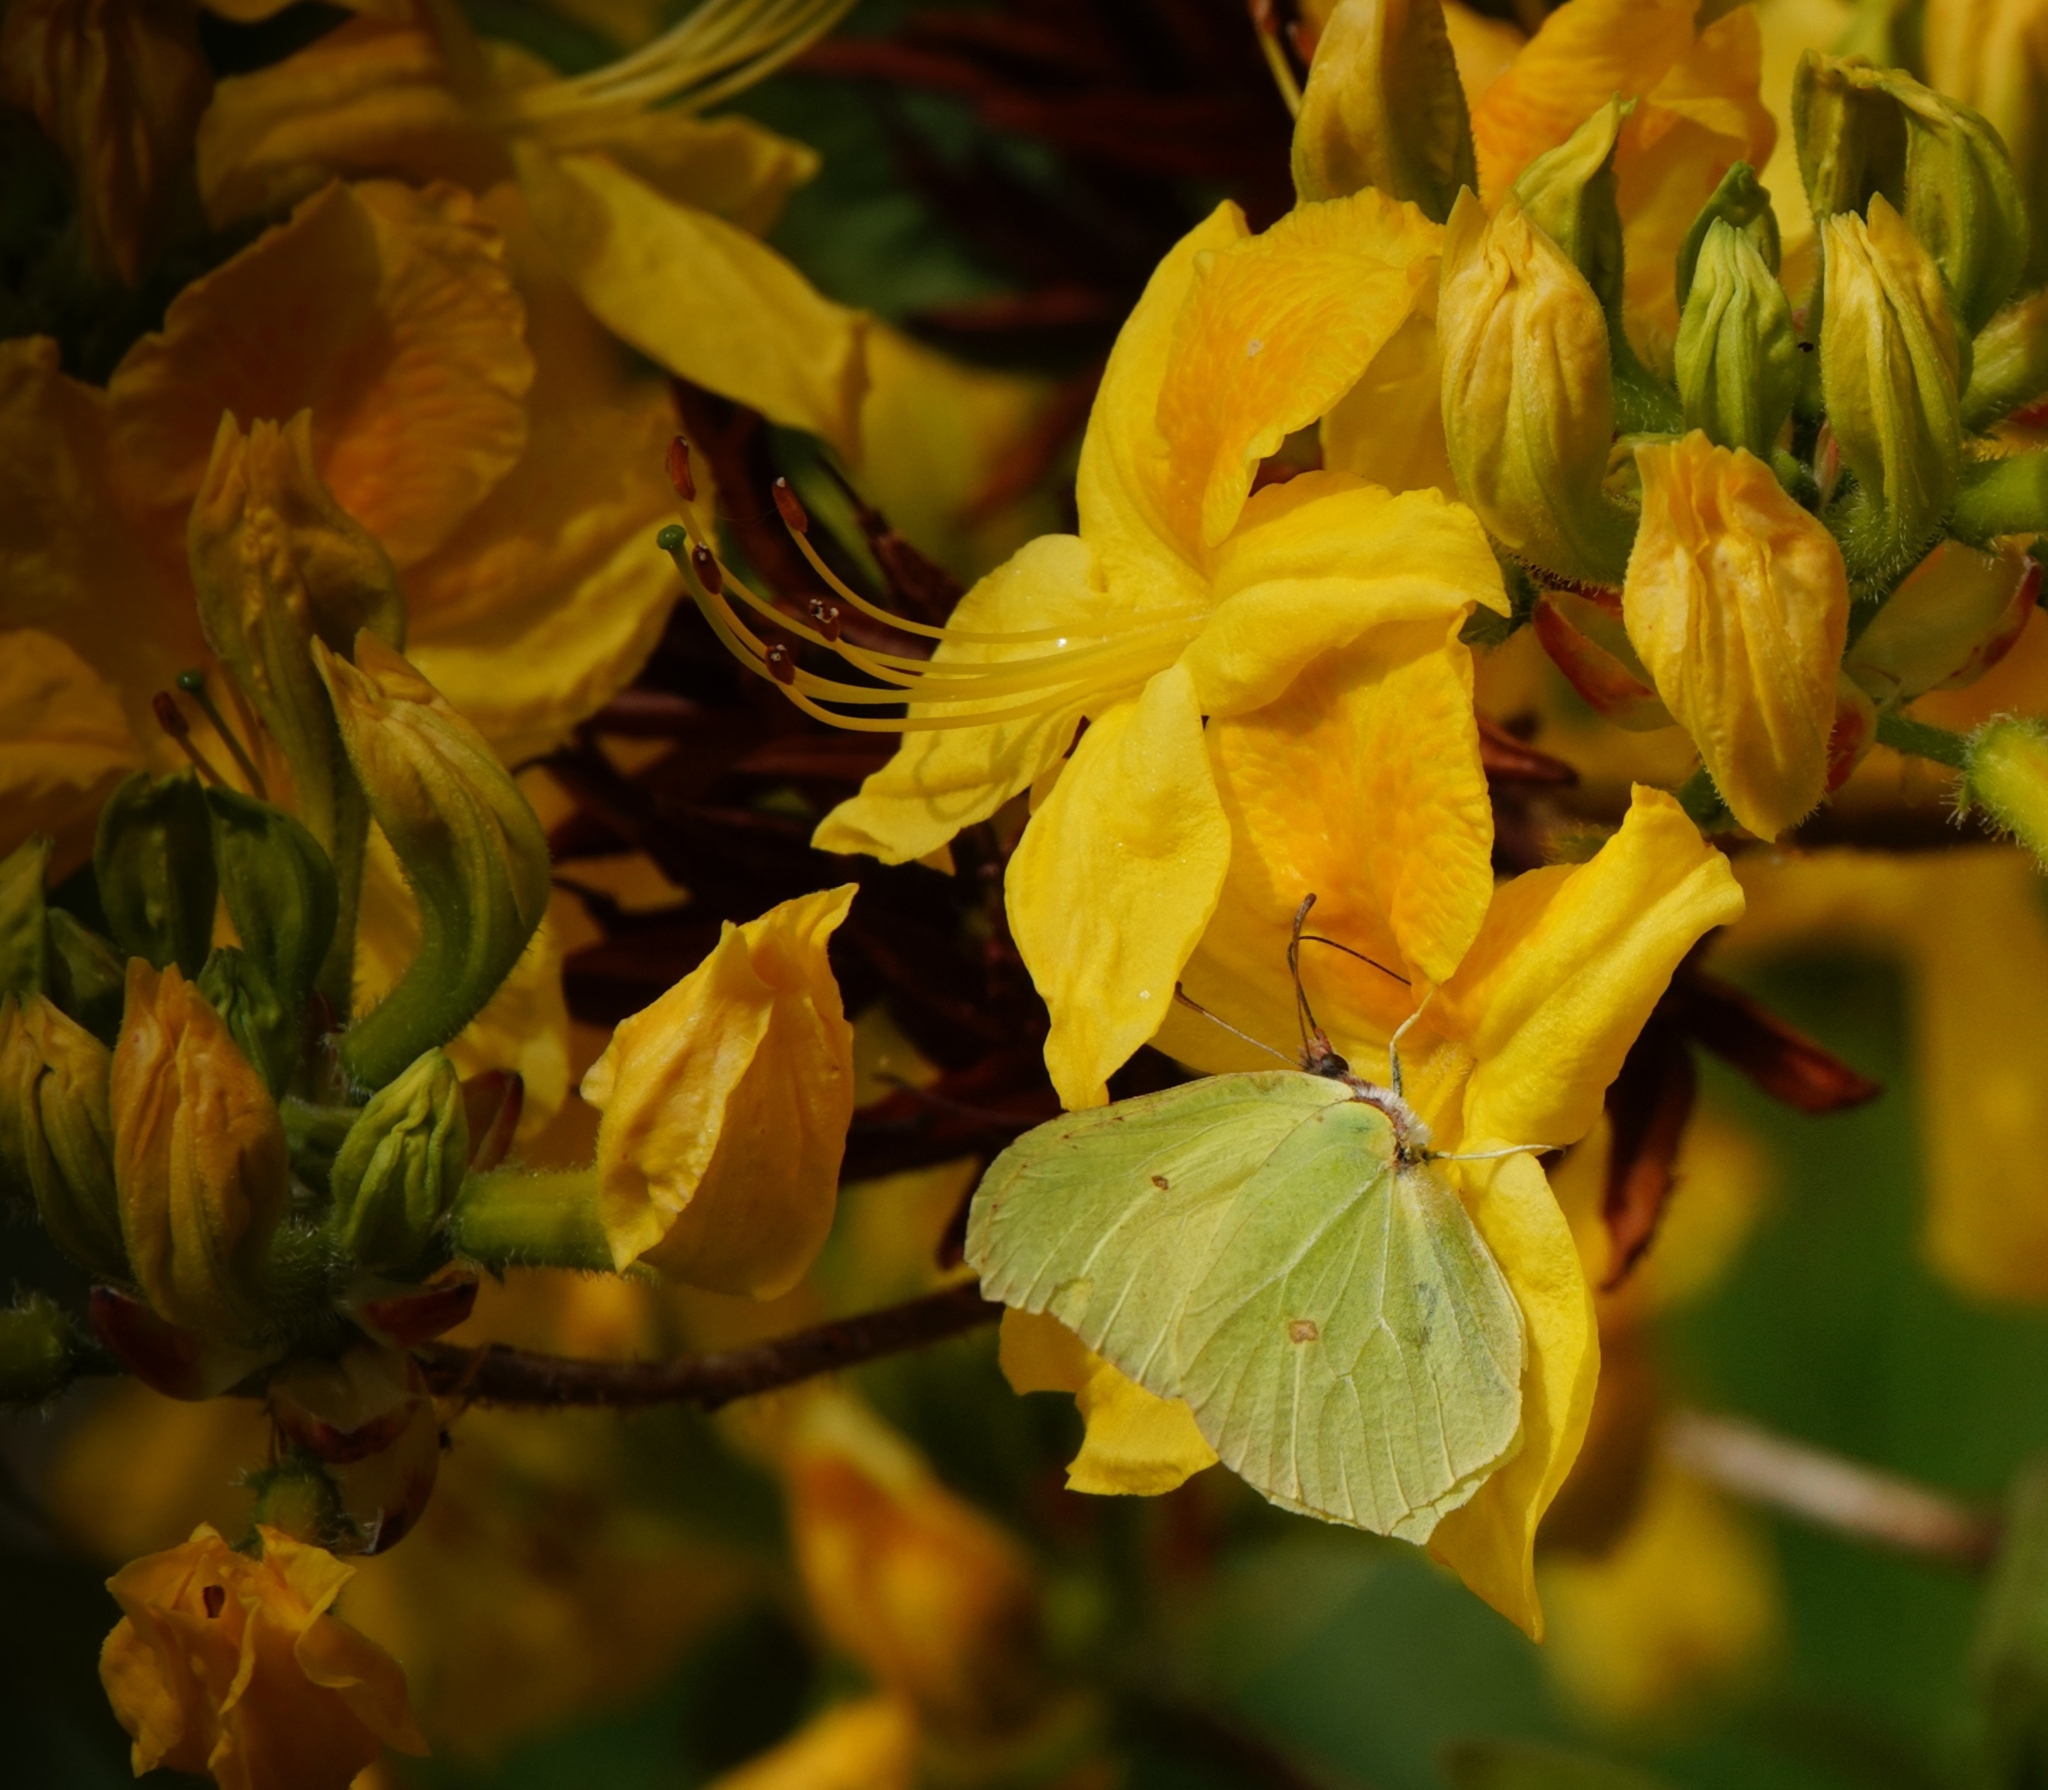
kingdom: Animalia
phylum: Arthropoda
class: Insecta
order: Lepidoptera
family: Pieridae
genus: Gonepteryx
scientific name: Gonepteryx rhamni
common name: Brimstone
